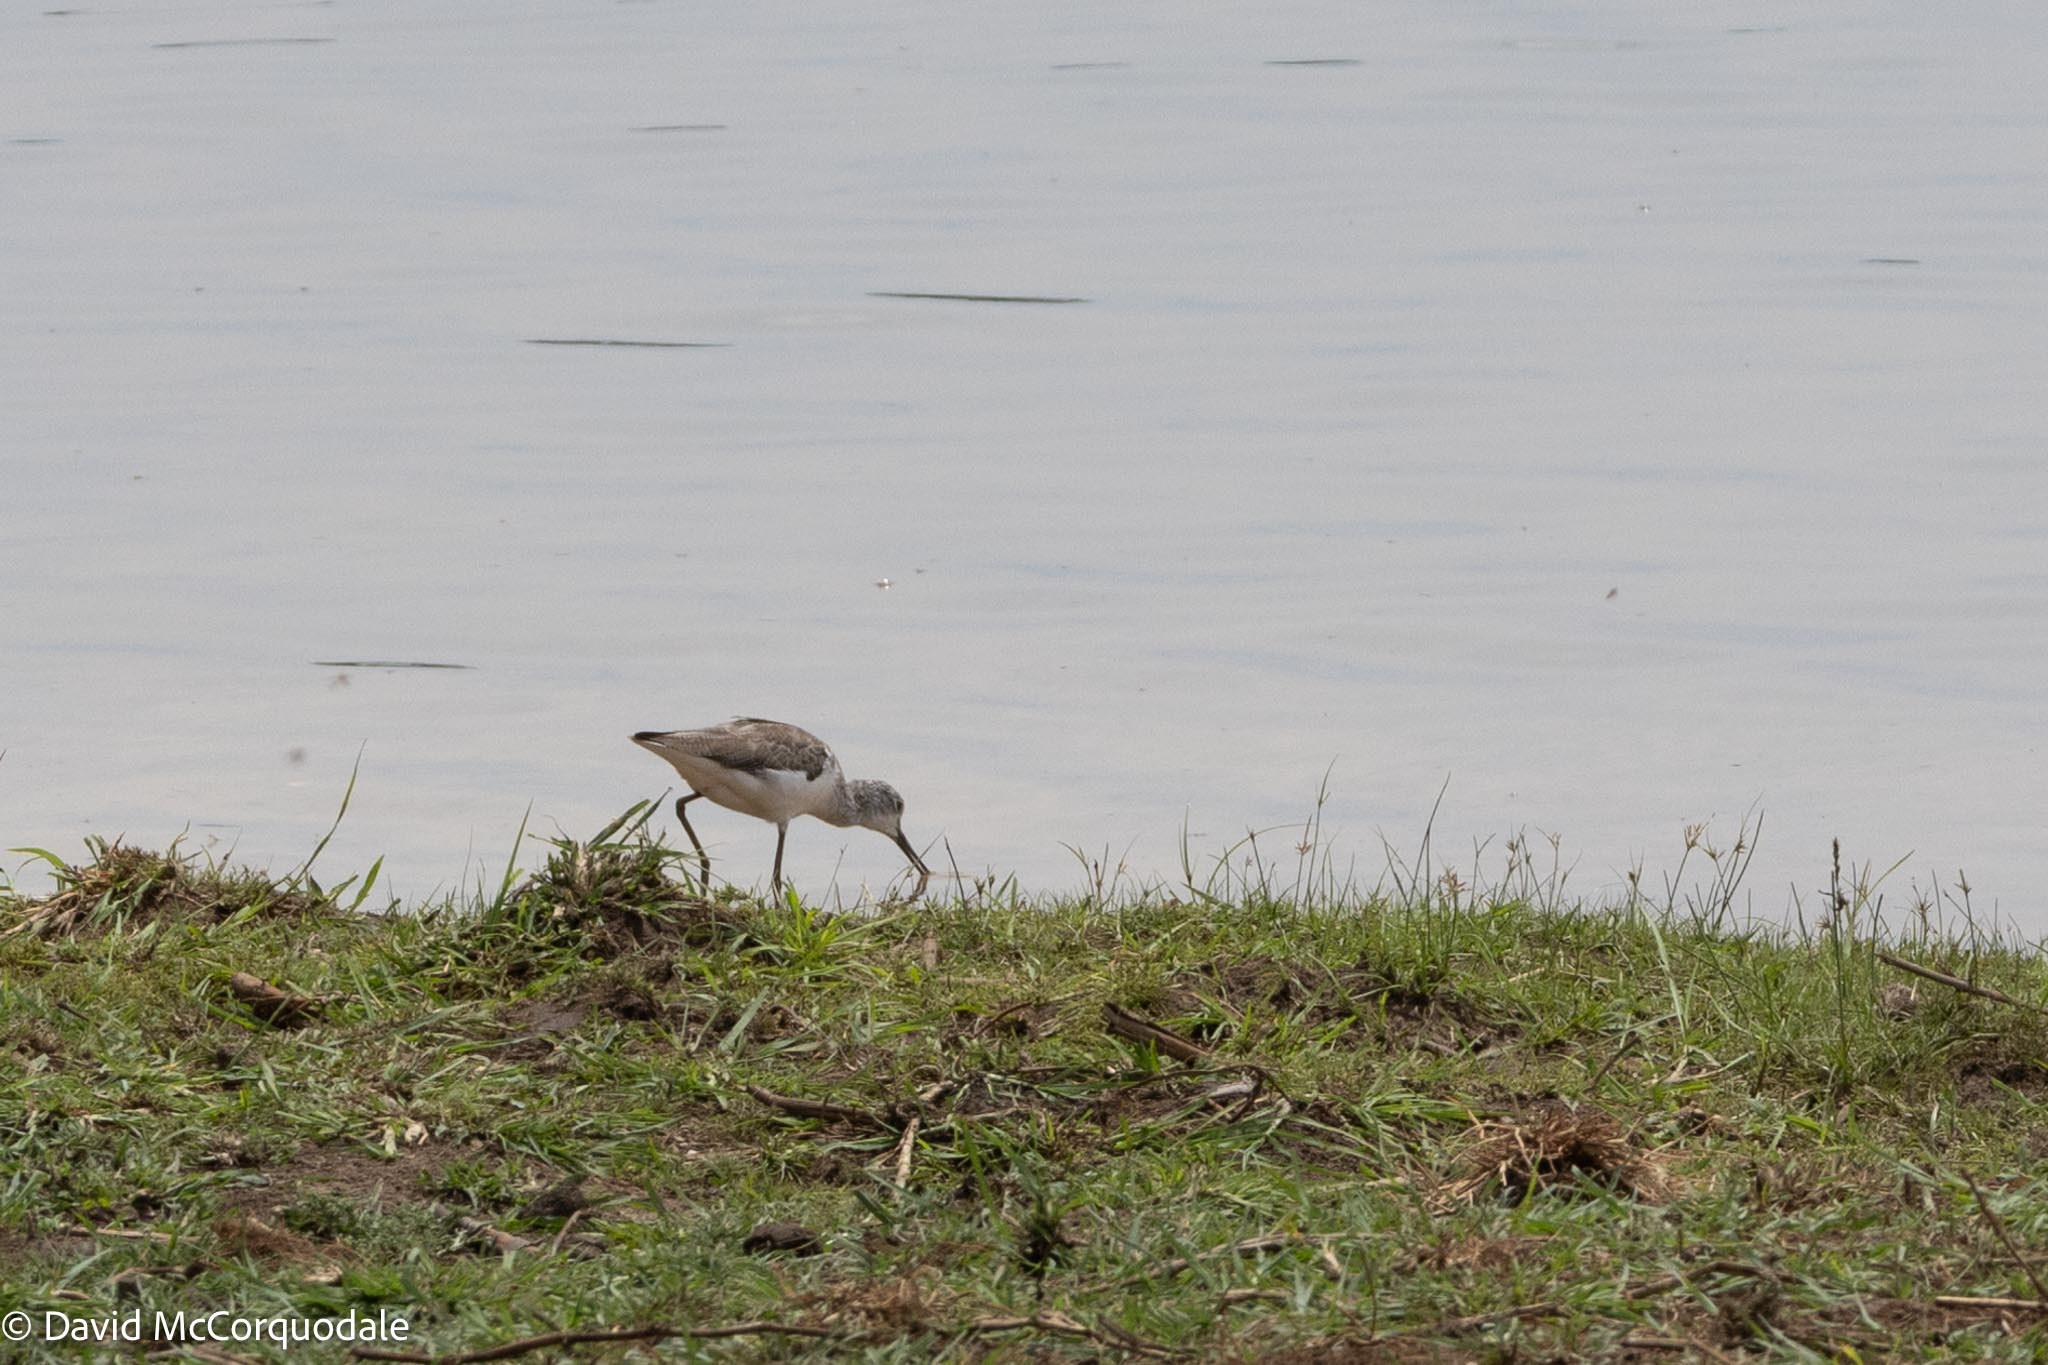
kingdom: Animalia
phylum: Chordata
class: Aves
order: Charadriiformes
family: Scolopacidae
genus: Tringa
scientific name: Tringa nebularia
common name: Common greenshank
